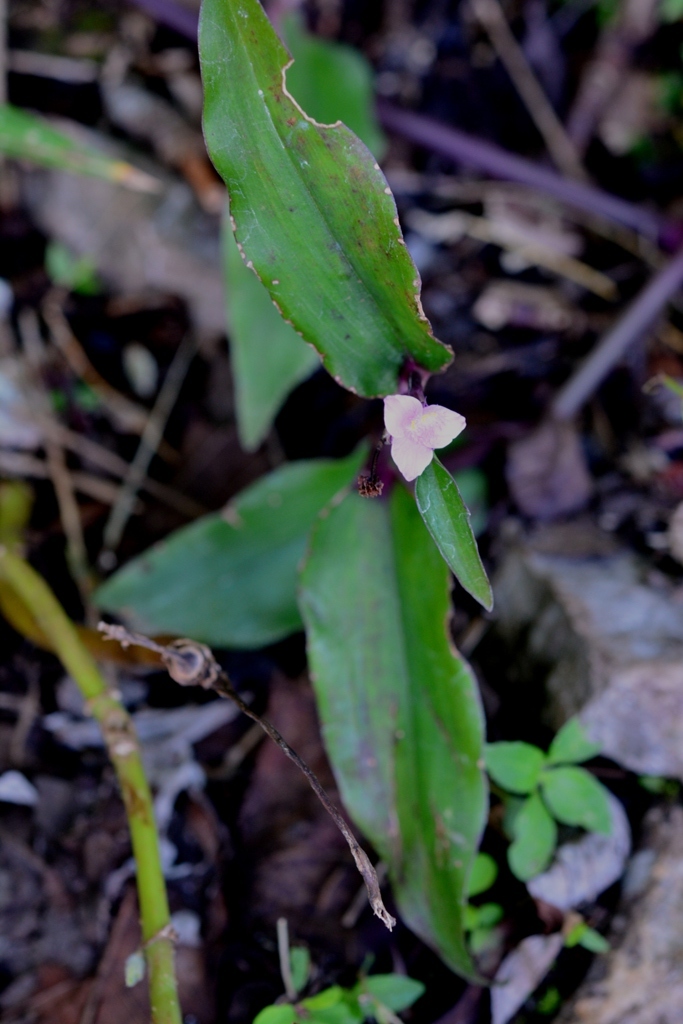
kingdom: Plantae
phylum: Tracheophyta
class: Liliopsida
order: Commelinales
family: Commelinaceae
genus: Tradescantia
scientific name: Tradescantia pallida
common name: Purpleheart
